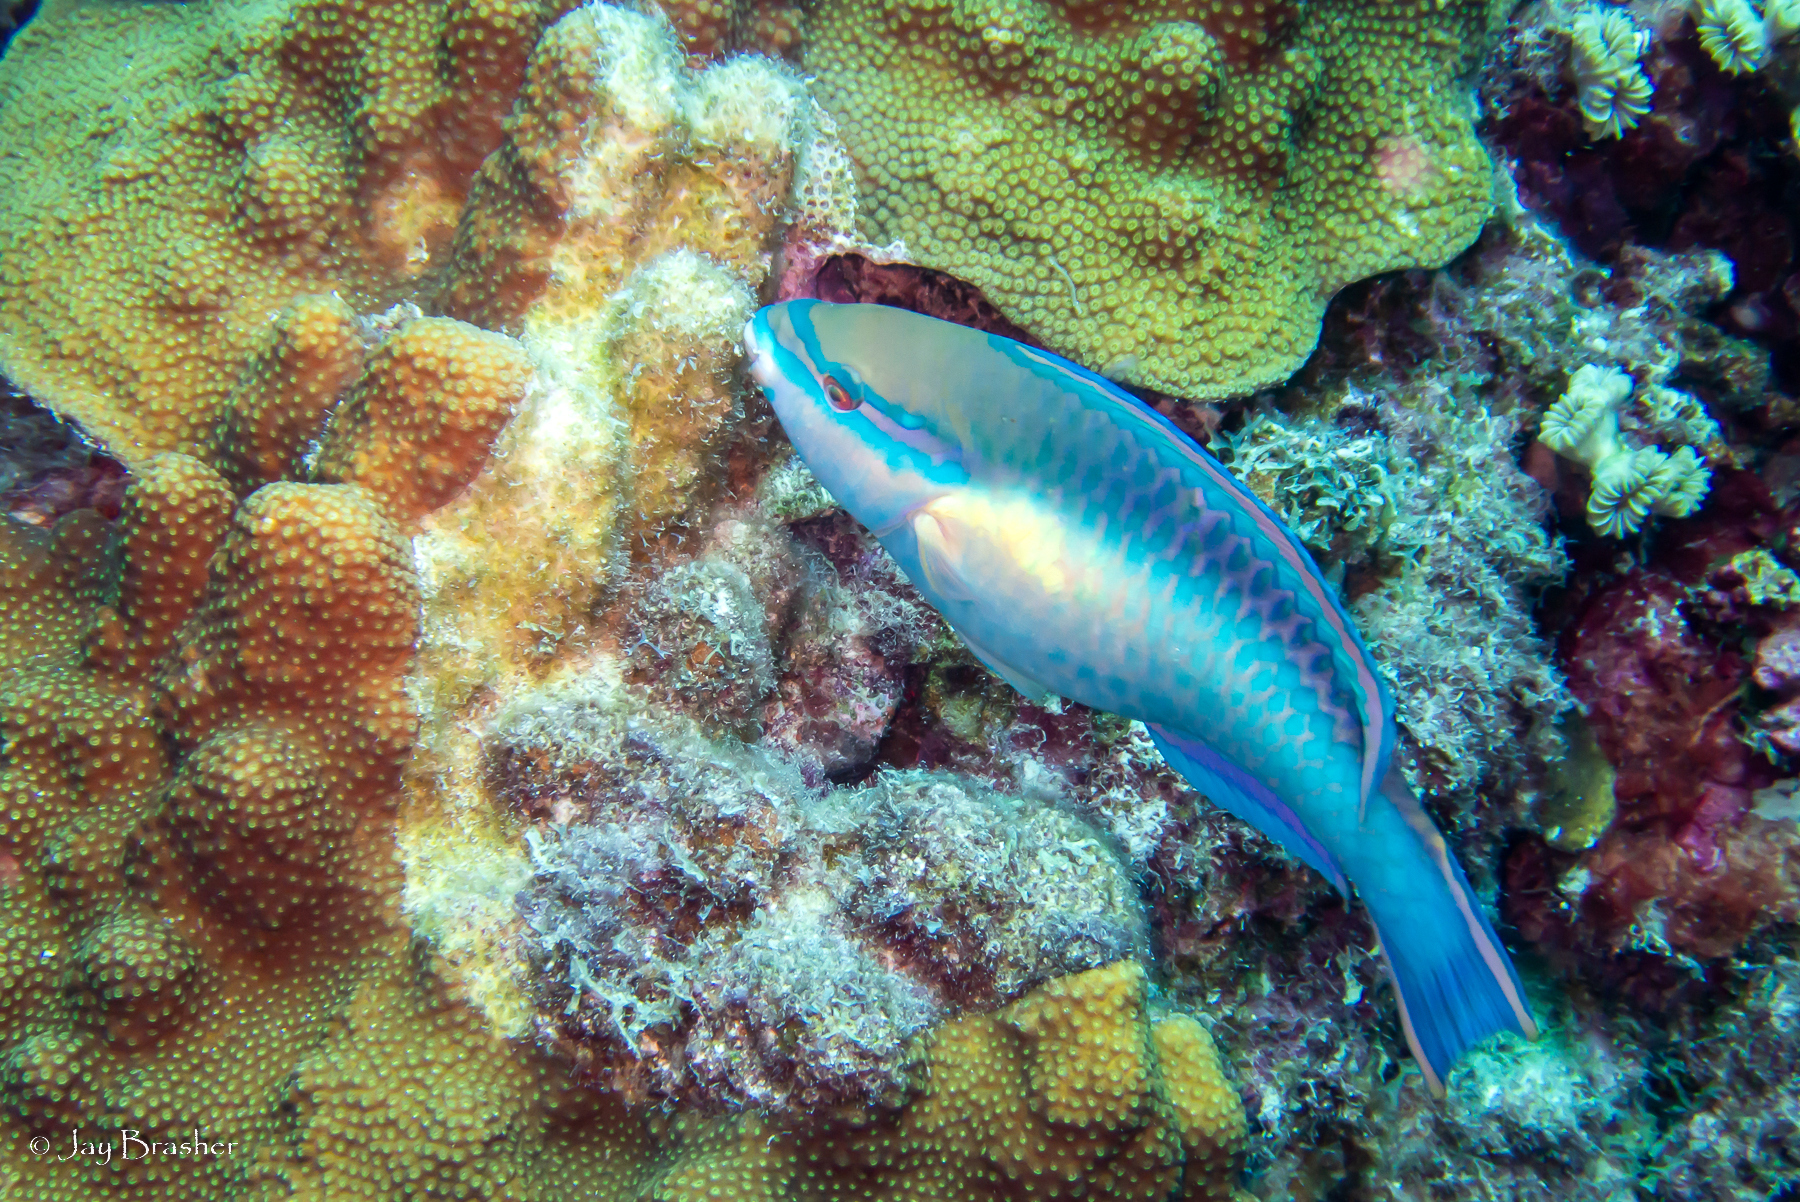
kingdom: Animalia
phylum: Chordata
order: Perciformes
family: Scaridae
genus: Scarus
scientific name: Scarus taeniopterus
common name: Princess parrotfish
